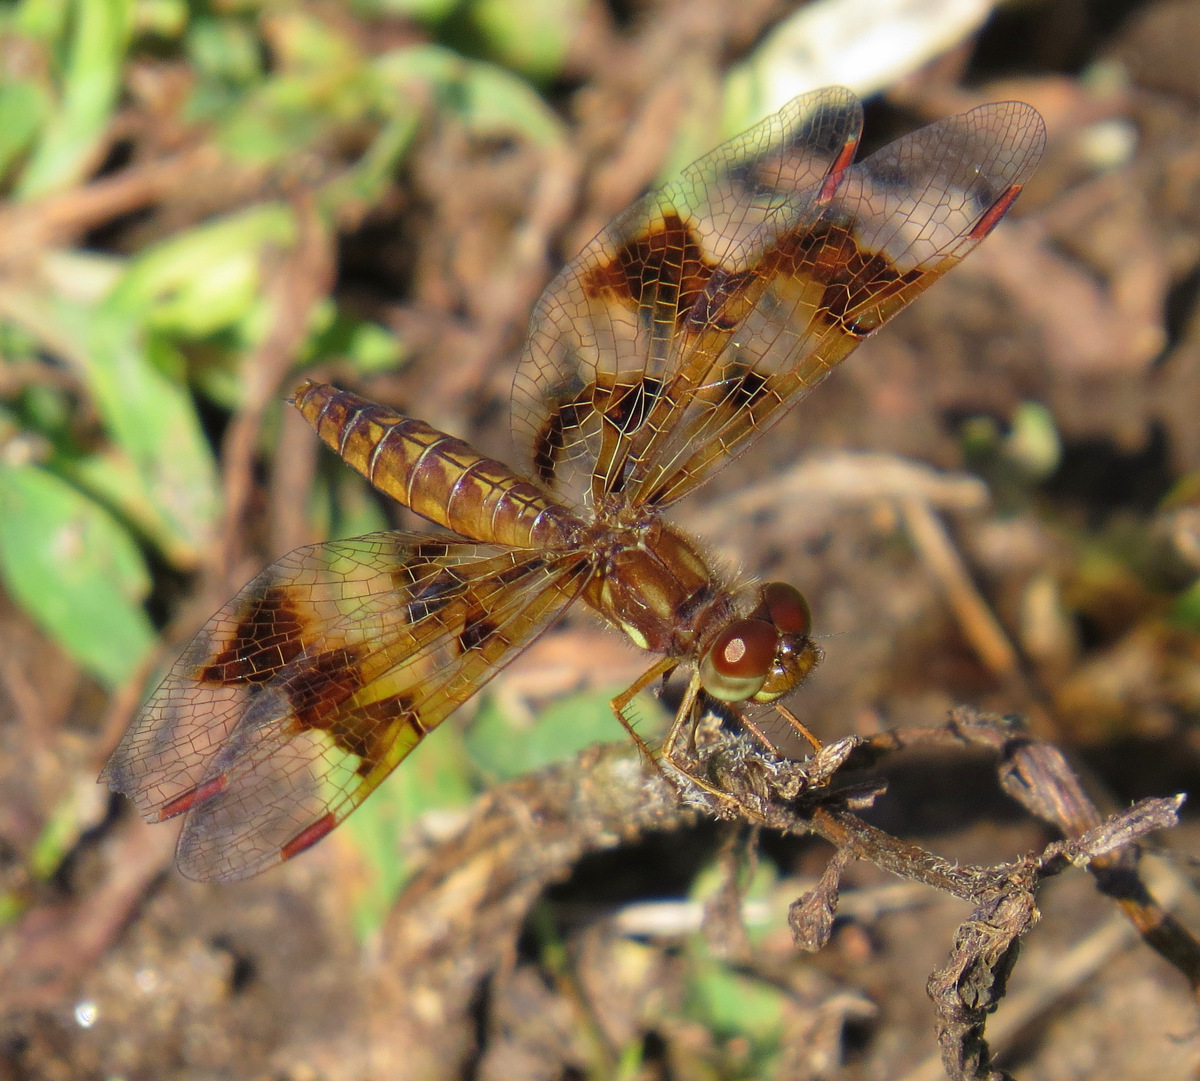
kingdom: Animalia
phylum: Arthropoda
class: Insecta
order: Odonata
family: Libellulidae
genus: Perithemis
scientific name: Perithemis tenera
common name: Eastern amberwing
